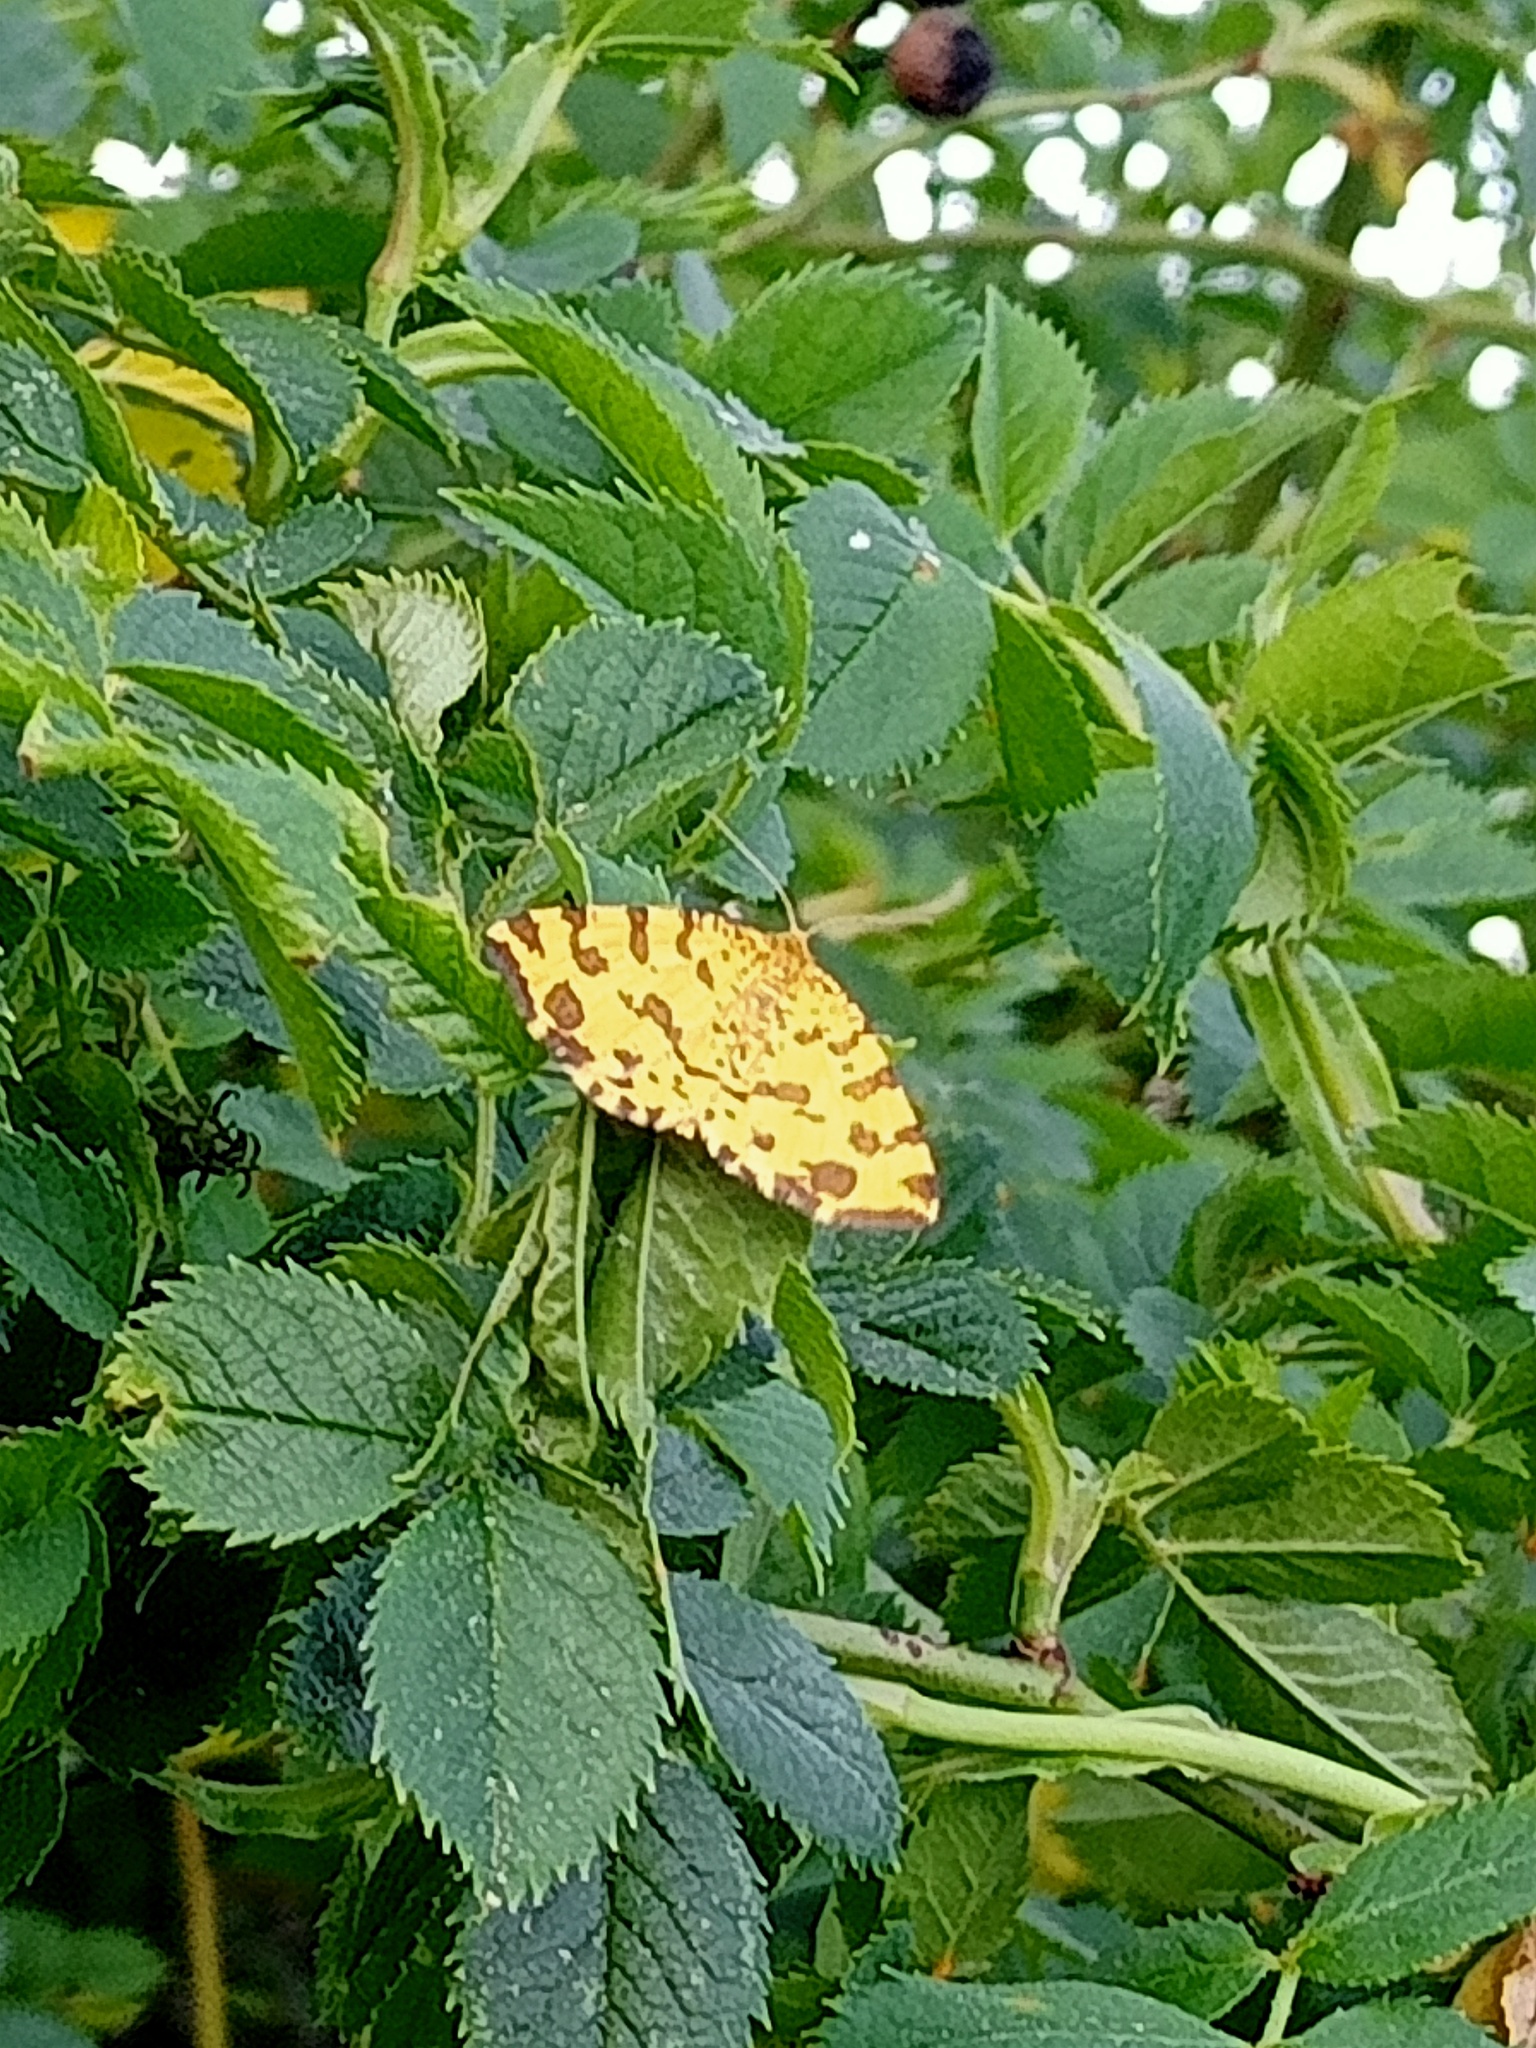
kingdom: Animalia
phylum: Arthropoda
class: Insecta
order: Lepidoptera
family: Geometridae
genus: Pseudopanthera
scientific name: Pseudopanthera macularia
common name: Speckled yellow
